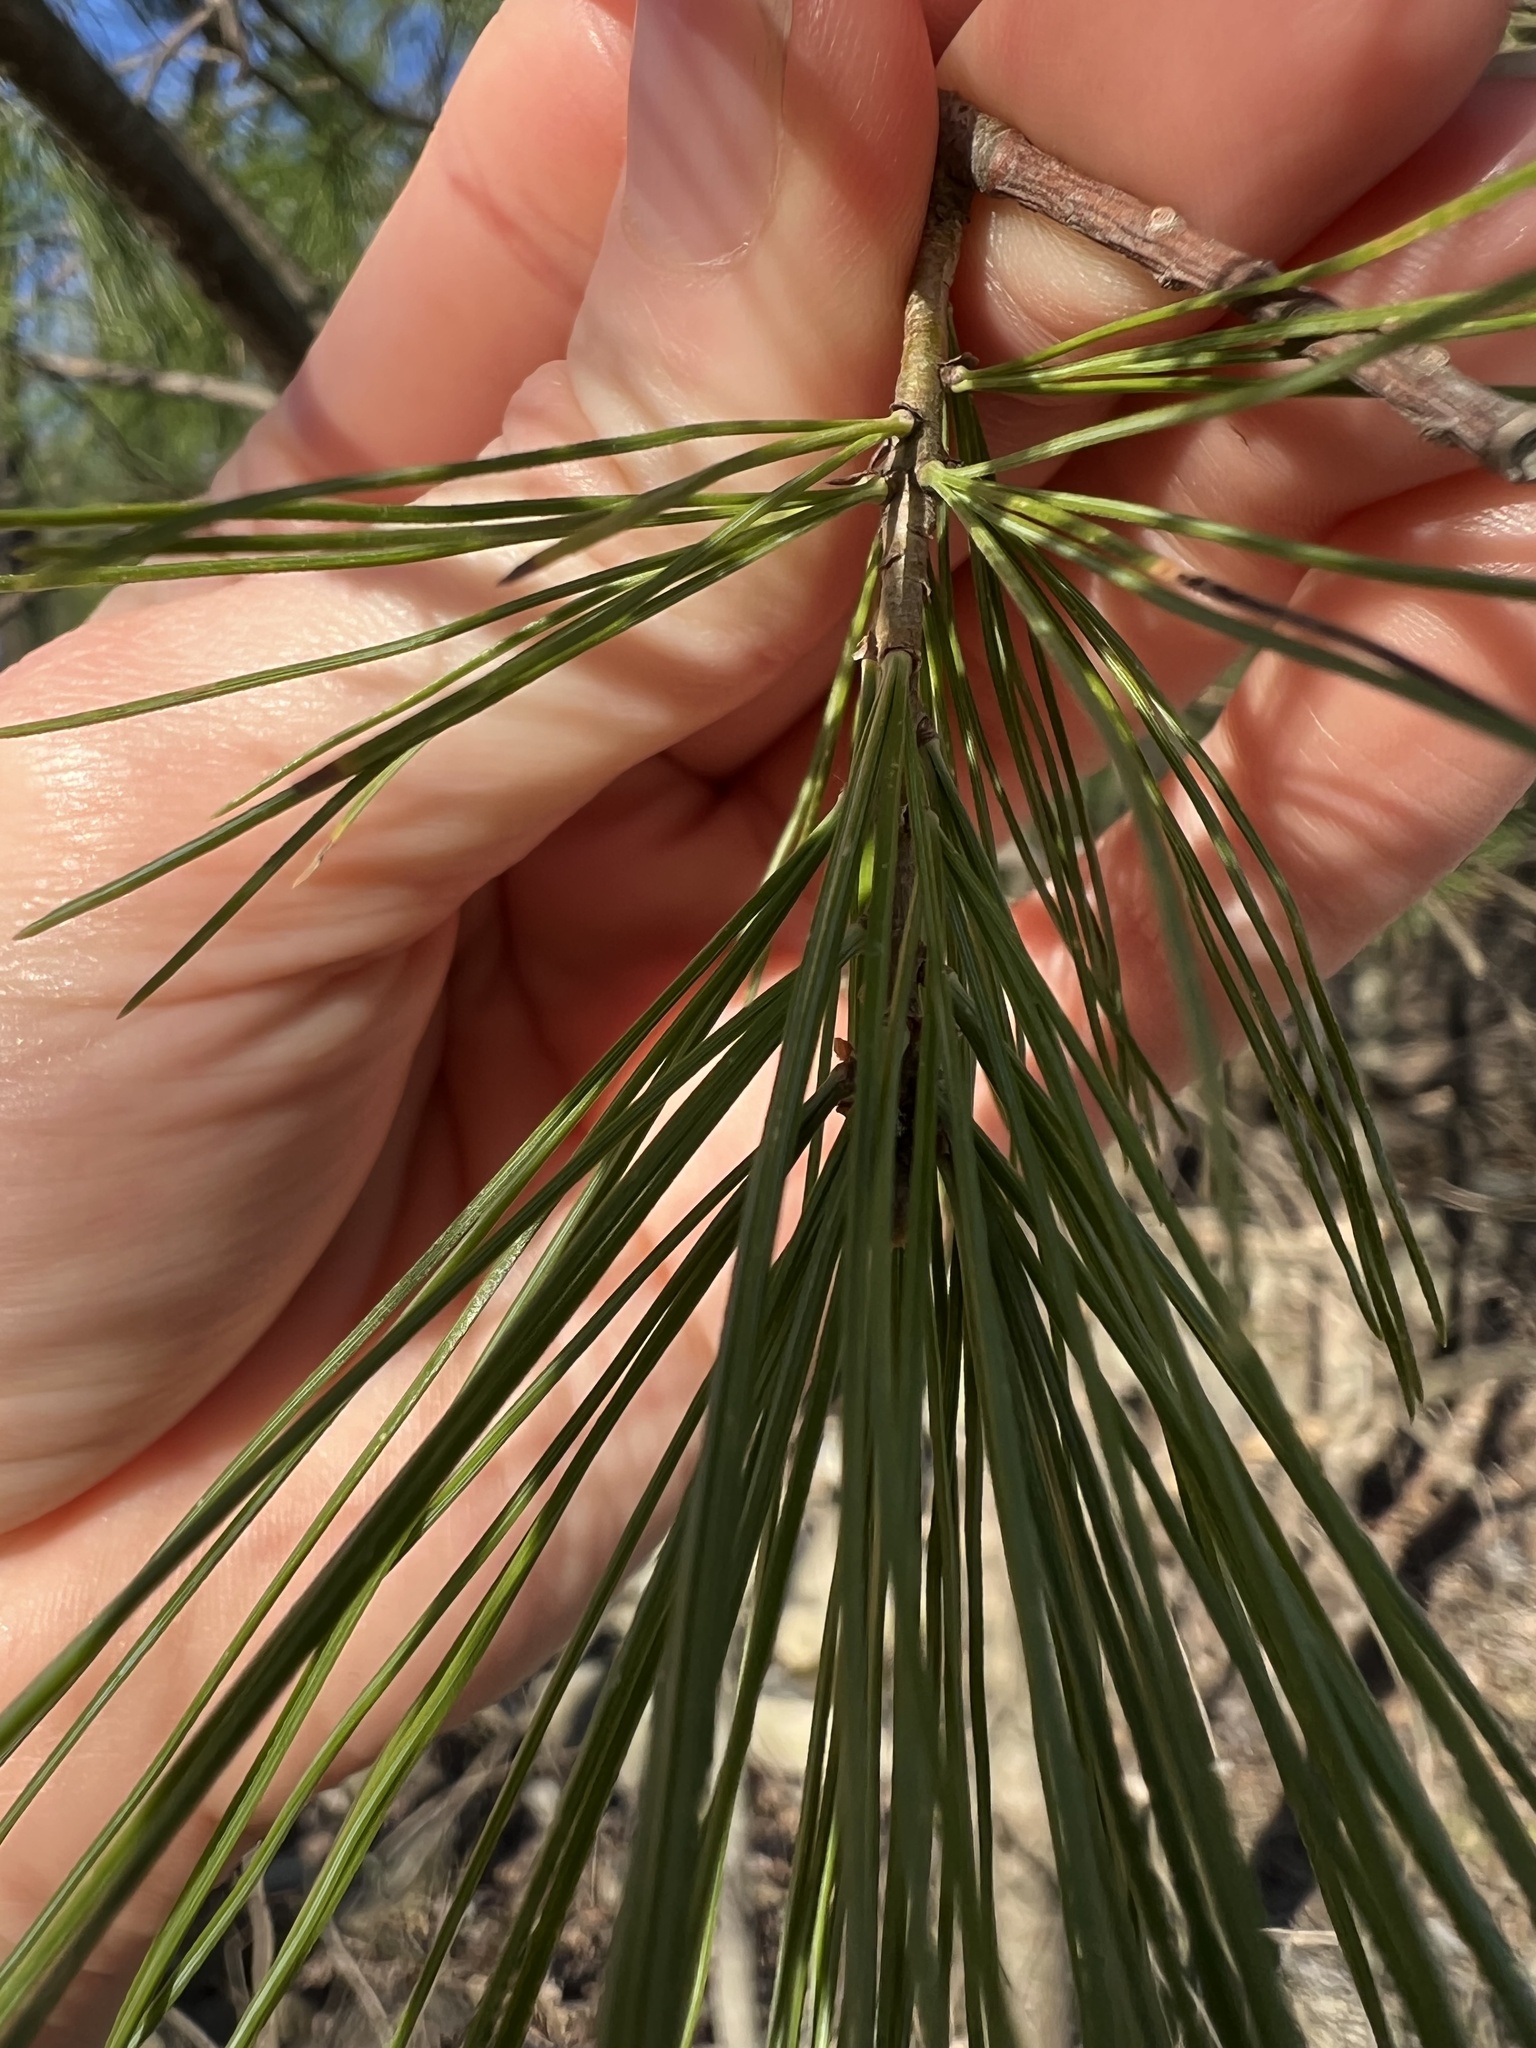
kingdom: Plantae
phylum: Tracheophyta
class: Pinopsida
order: Pinales
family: Pinaceae
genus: Pinus
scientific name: Pinus strobus
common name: Weymouth pine
